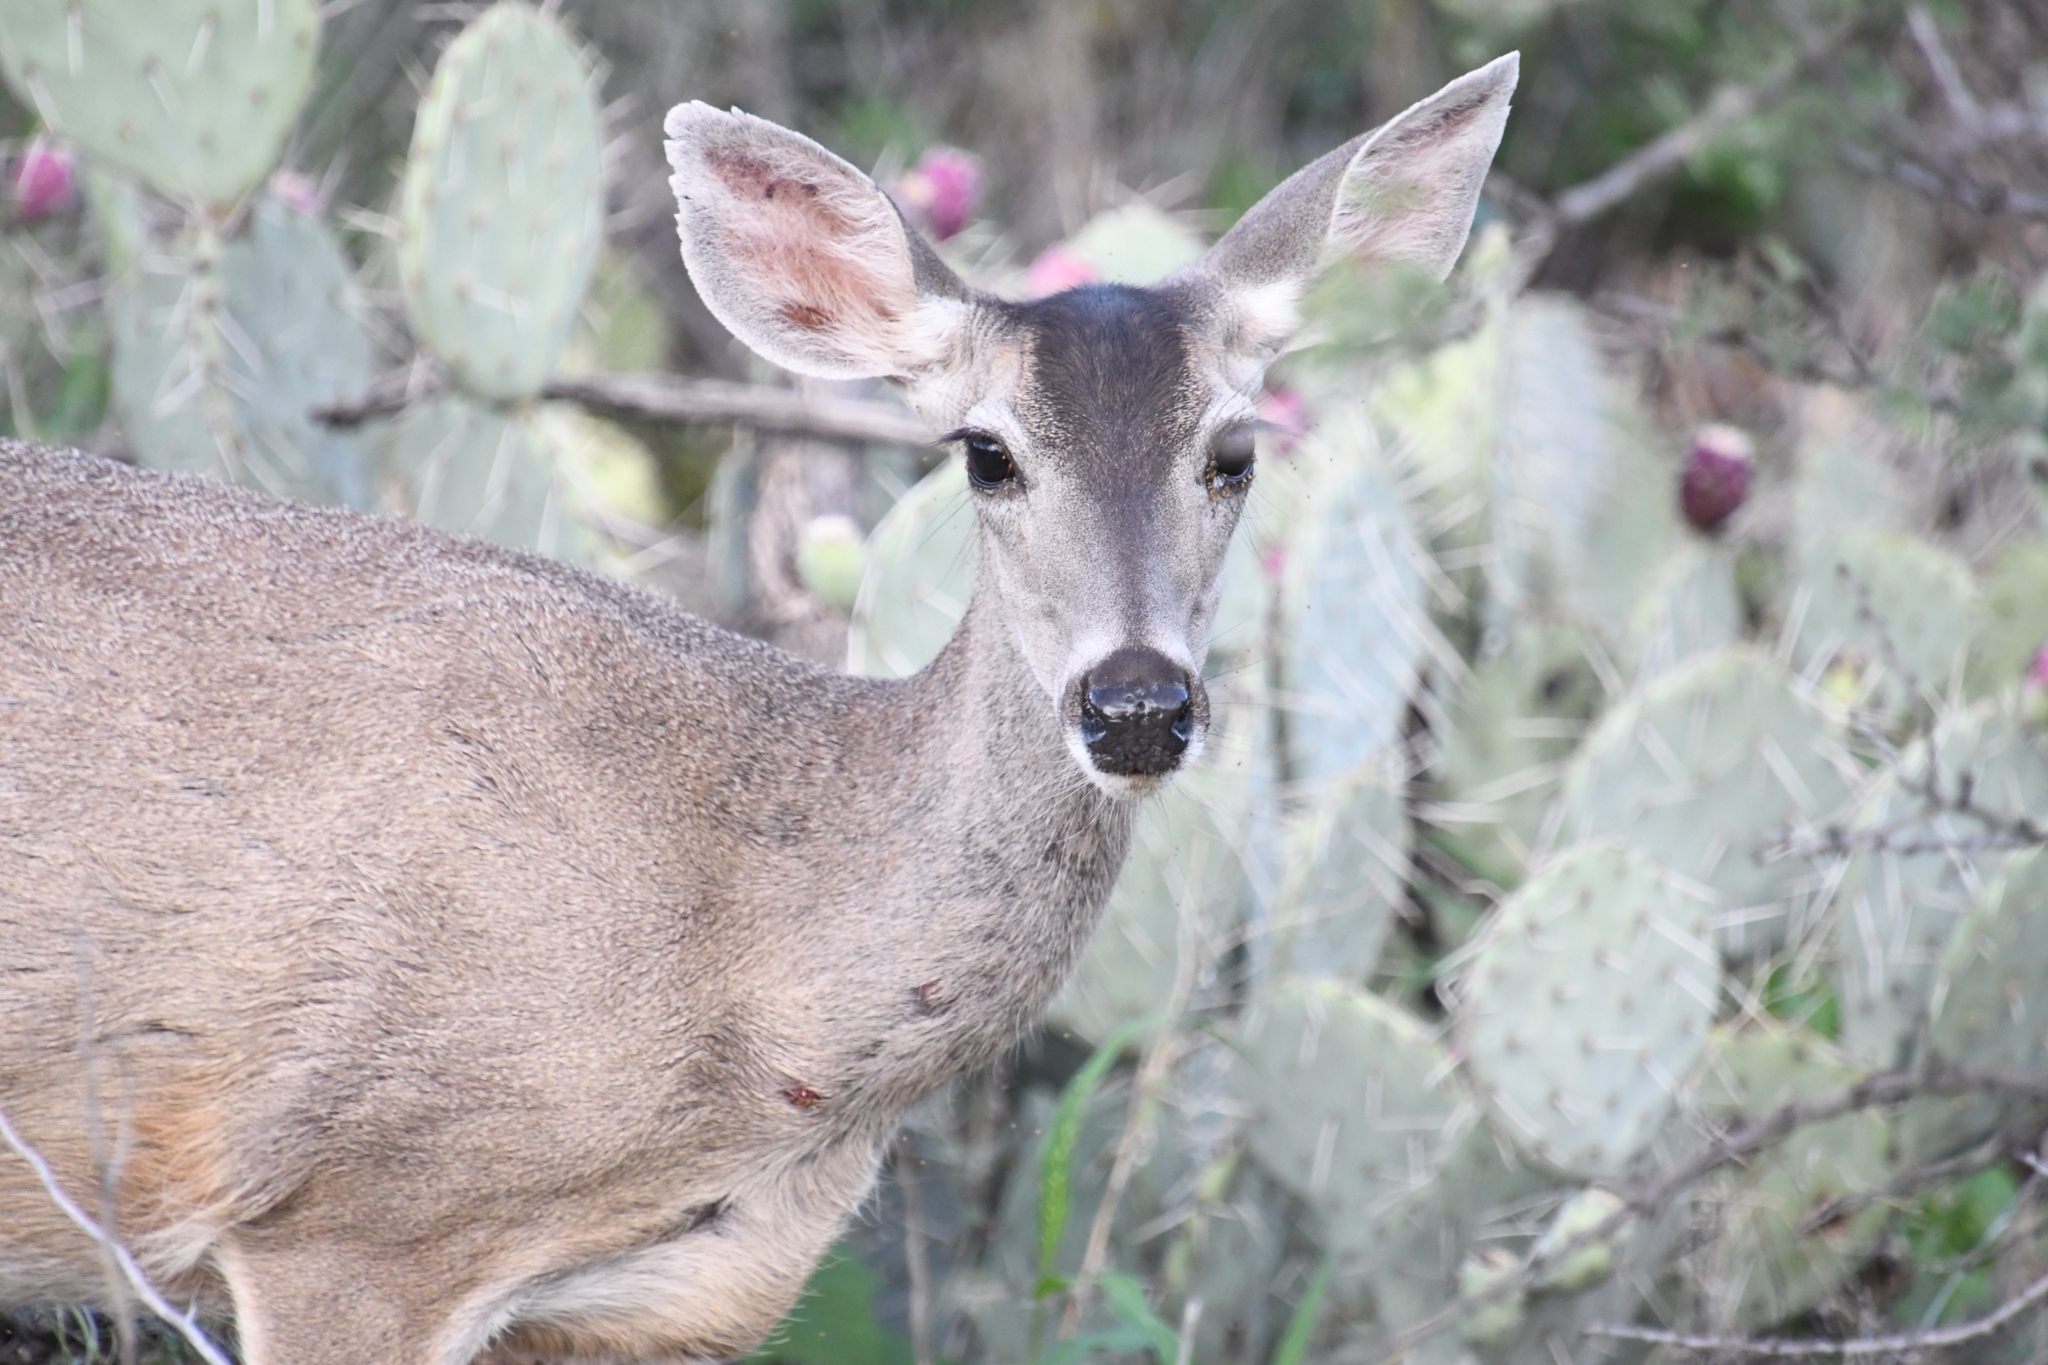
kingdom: Animalia
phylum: Chordata
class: Mammalia
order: Artiodactyla
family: Cervidae
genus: Odocoileus
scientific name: Odocoileus virginianus
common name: White-tailed deer
